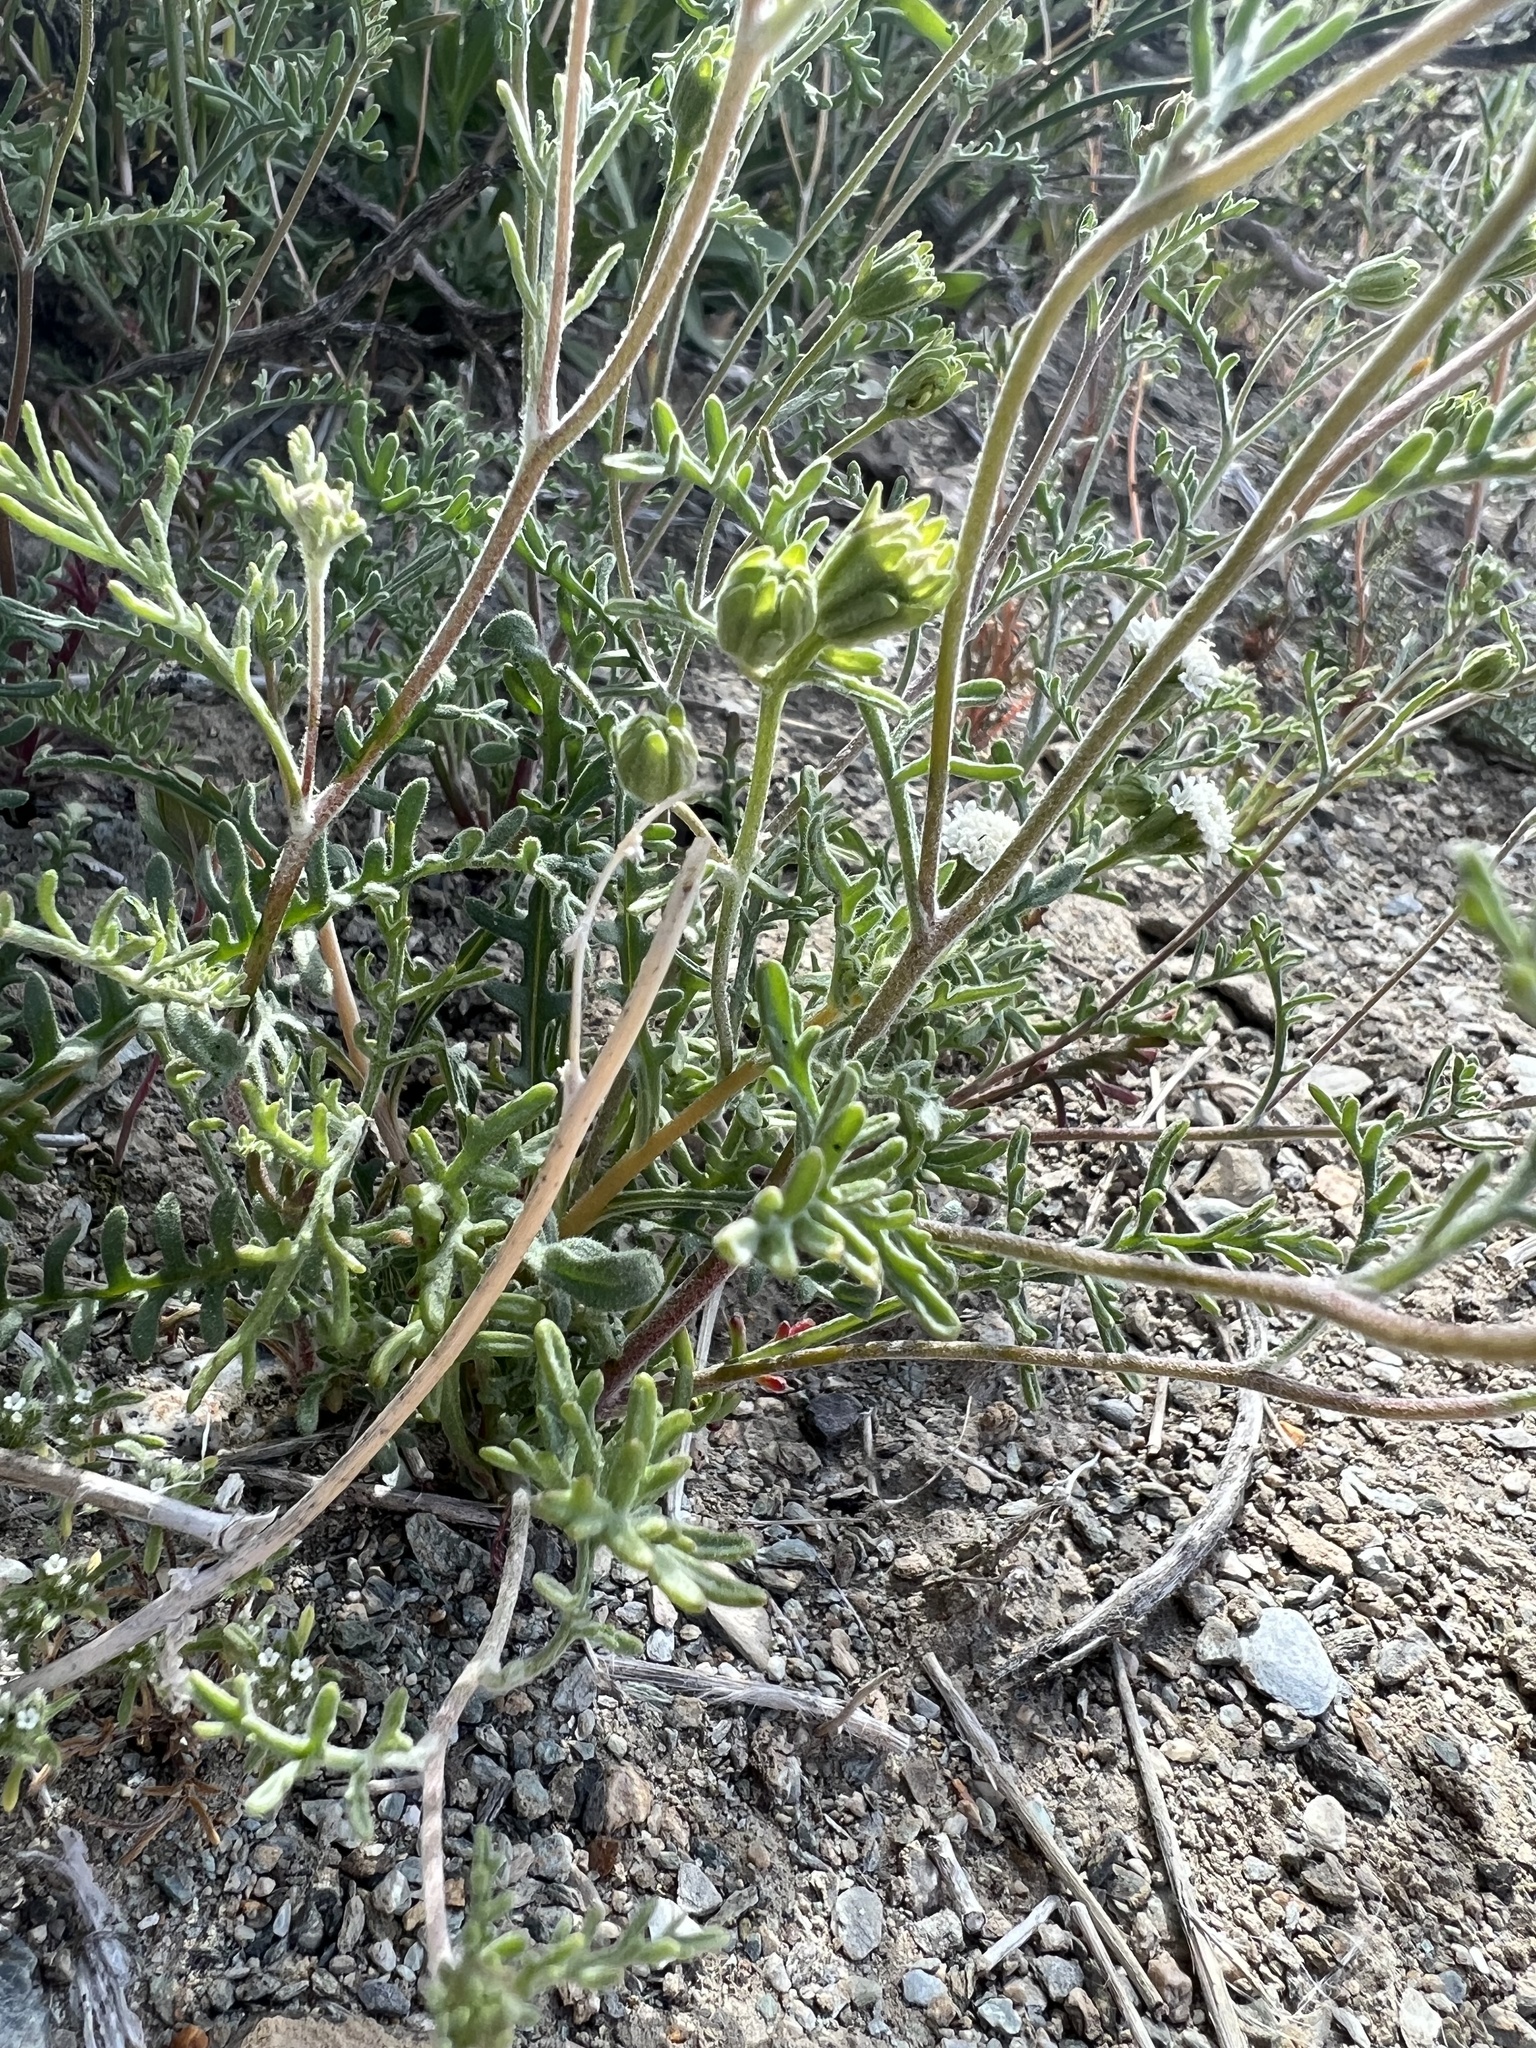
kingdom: Plantae
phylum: Tracheophyta
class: Magnoliopsida
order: Asterales
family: Asteraceae
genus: Chaenactis
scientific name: Chaenactis stevioides
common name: Desert pincushion
